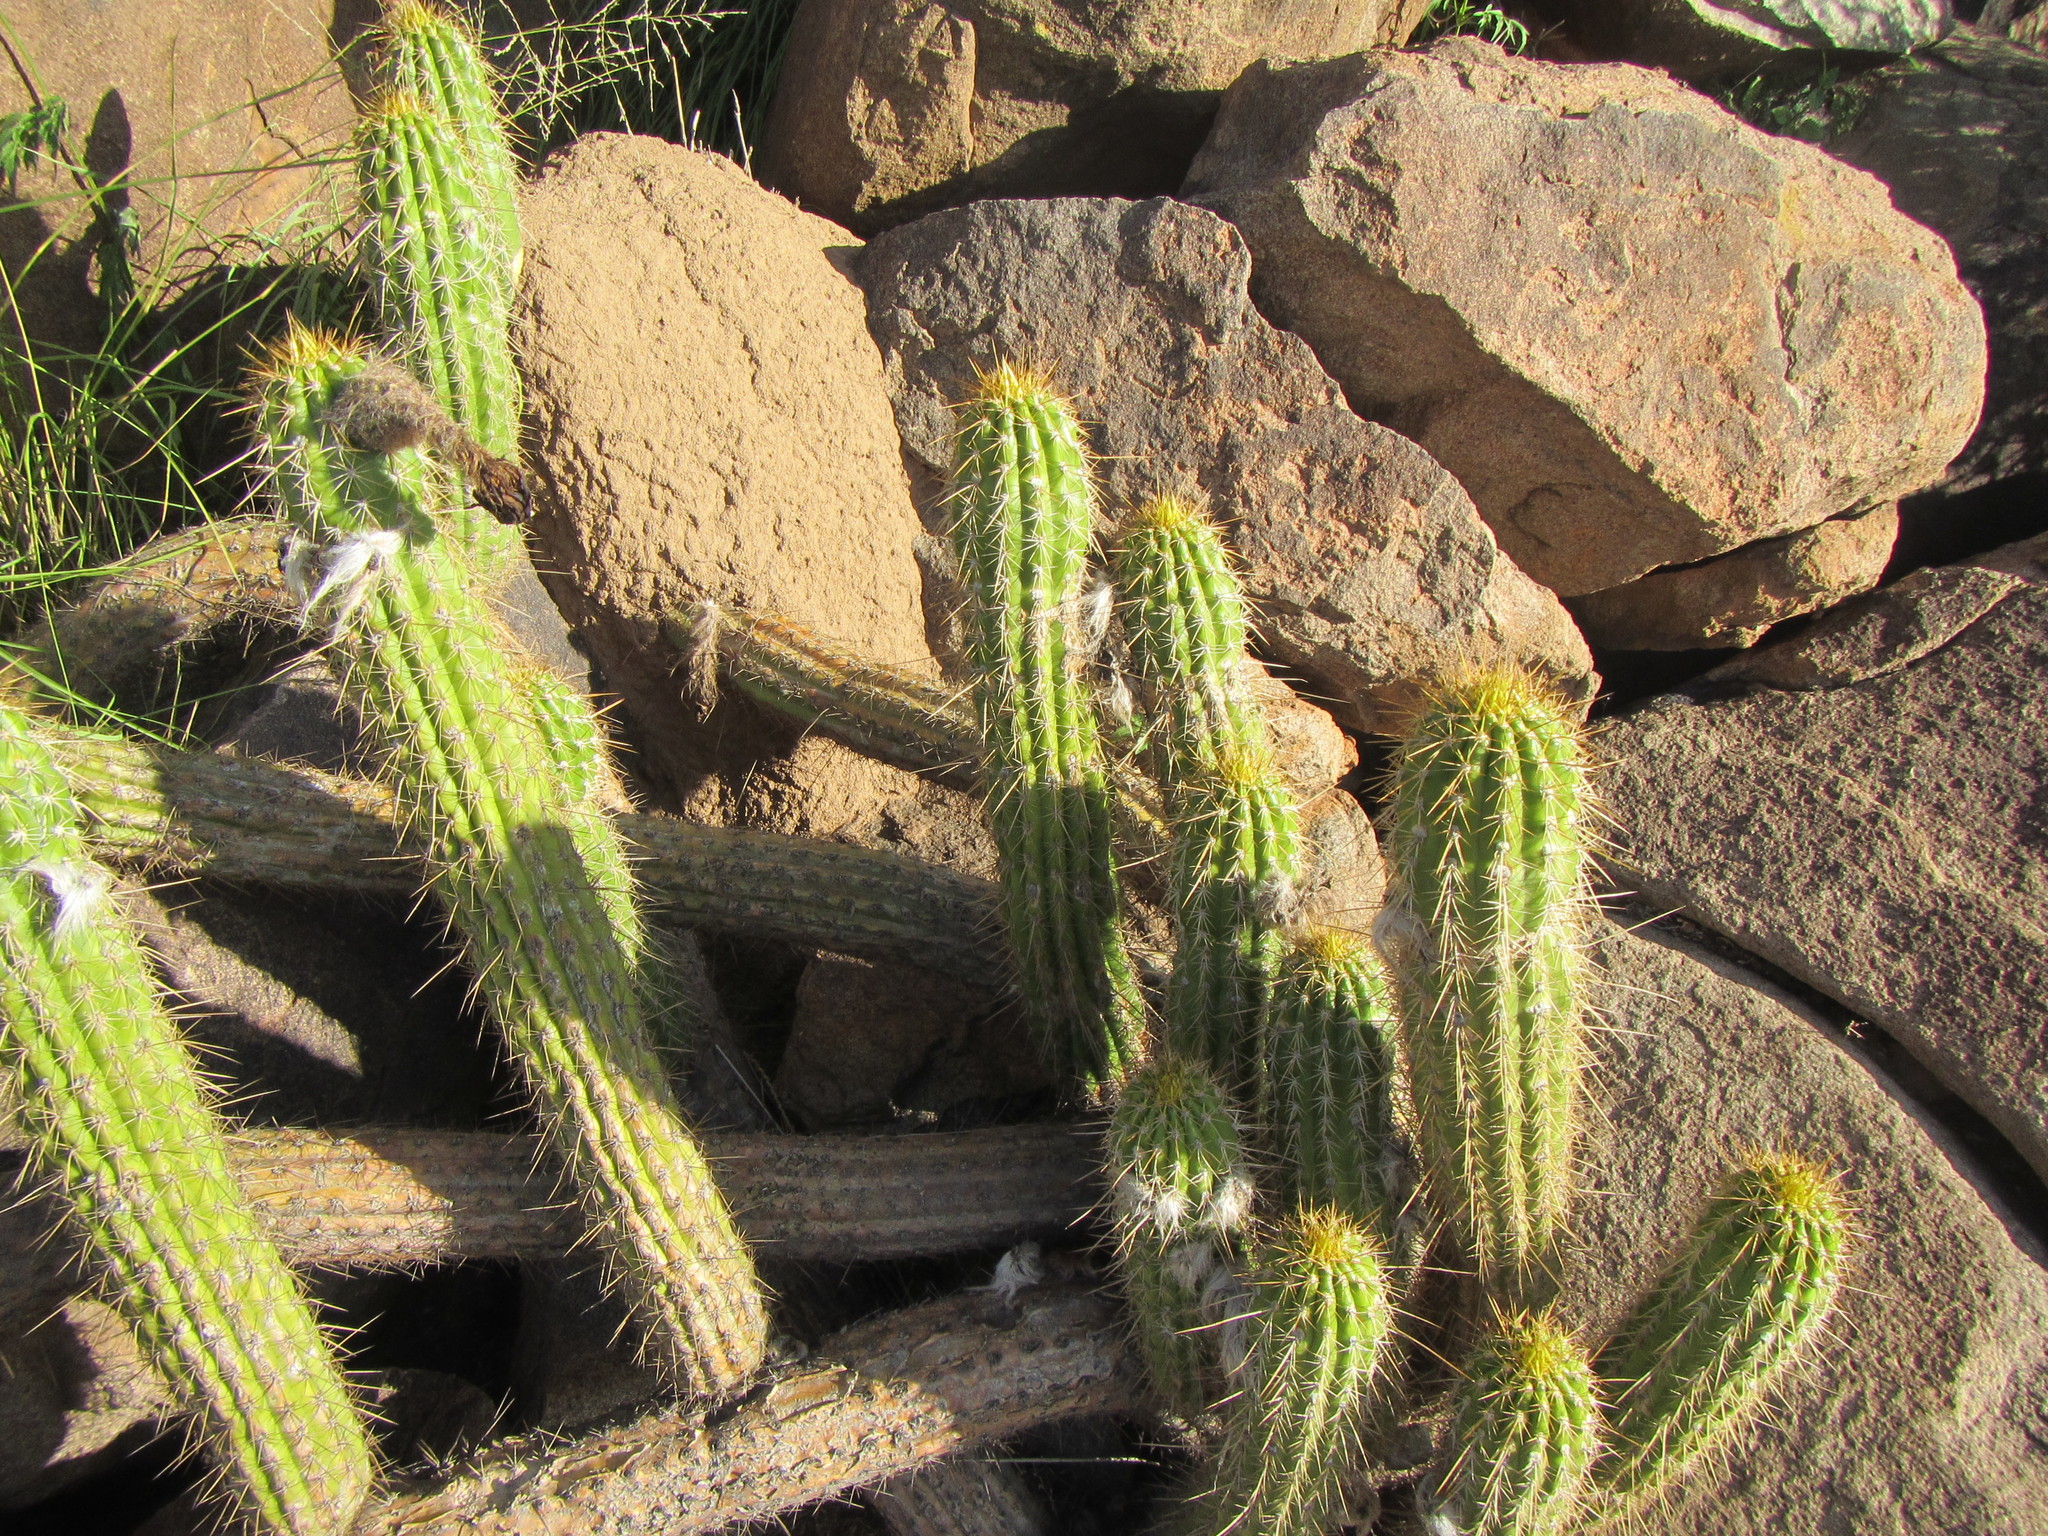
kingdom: Plantae
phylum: Tracheophyta
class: Magnoliopsida
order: Caryophyllales
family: Cactaceae
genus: Soehrensia
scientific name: Soehrensia spachiana
